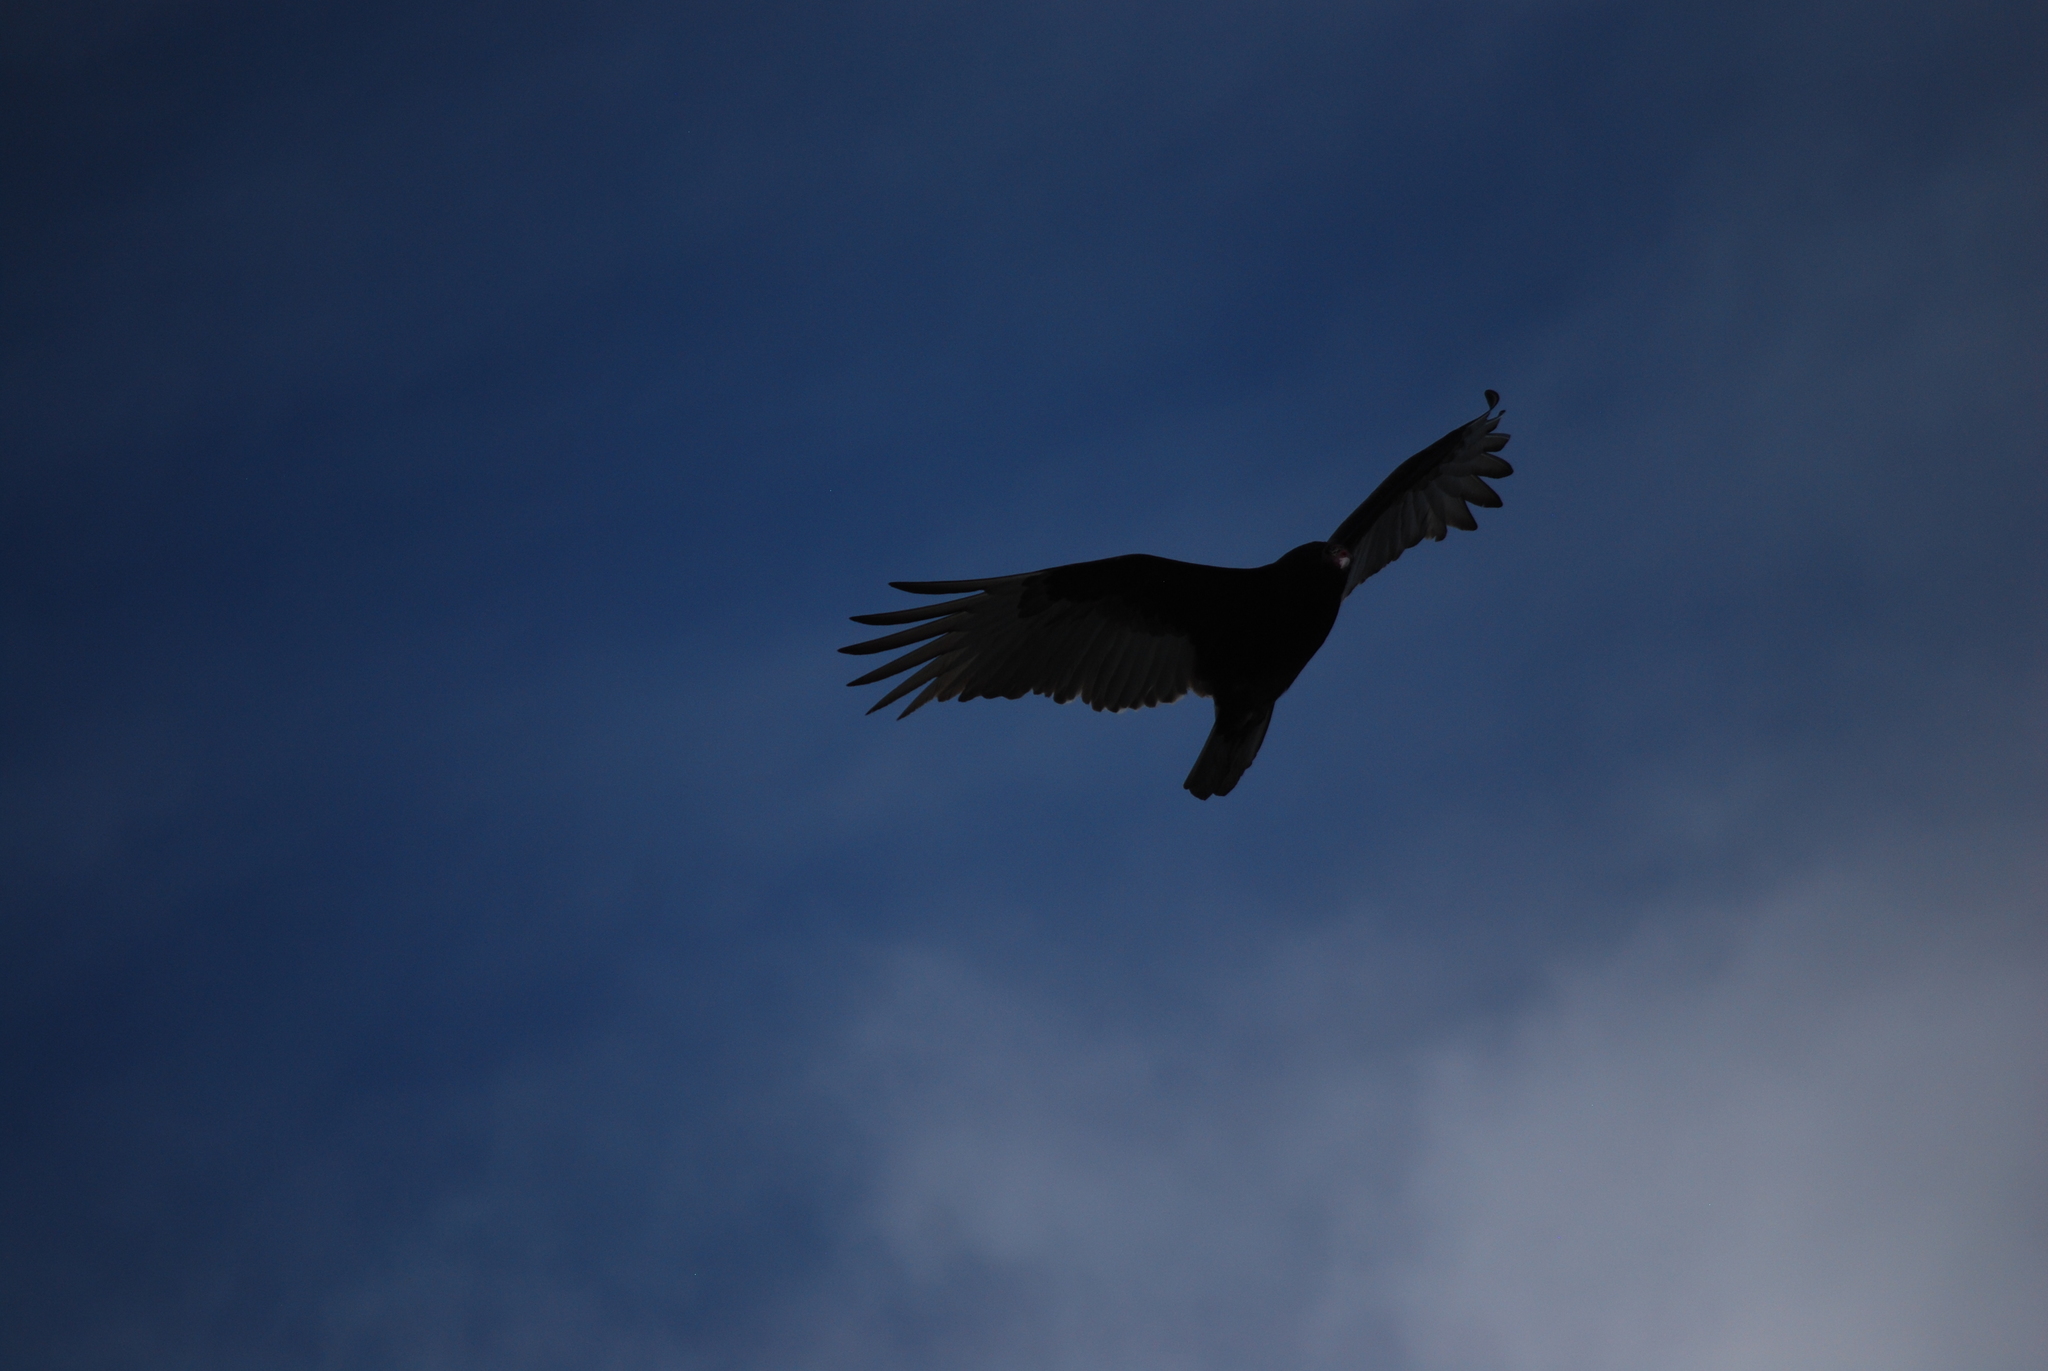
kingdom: Animalia
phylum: Chordata
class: Aves
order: Accipitriformes
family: Cathartidae
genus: Cathartes
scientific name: Cathartes aura
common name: Turkey vulture
